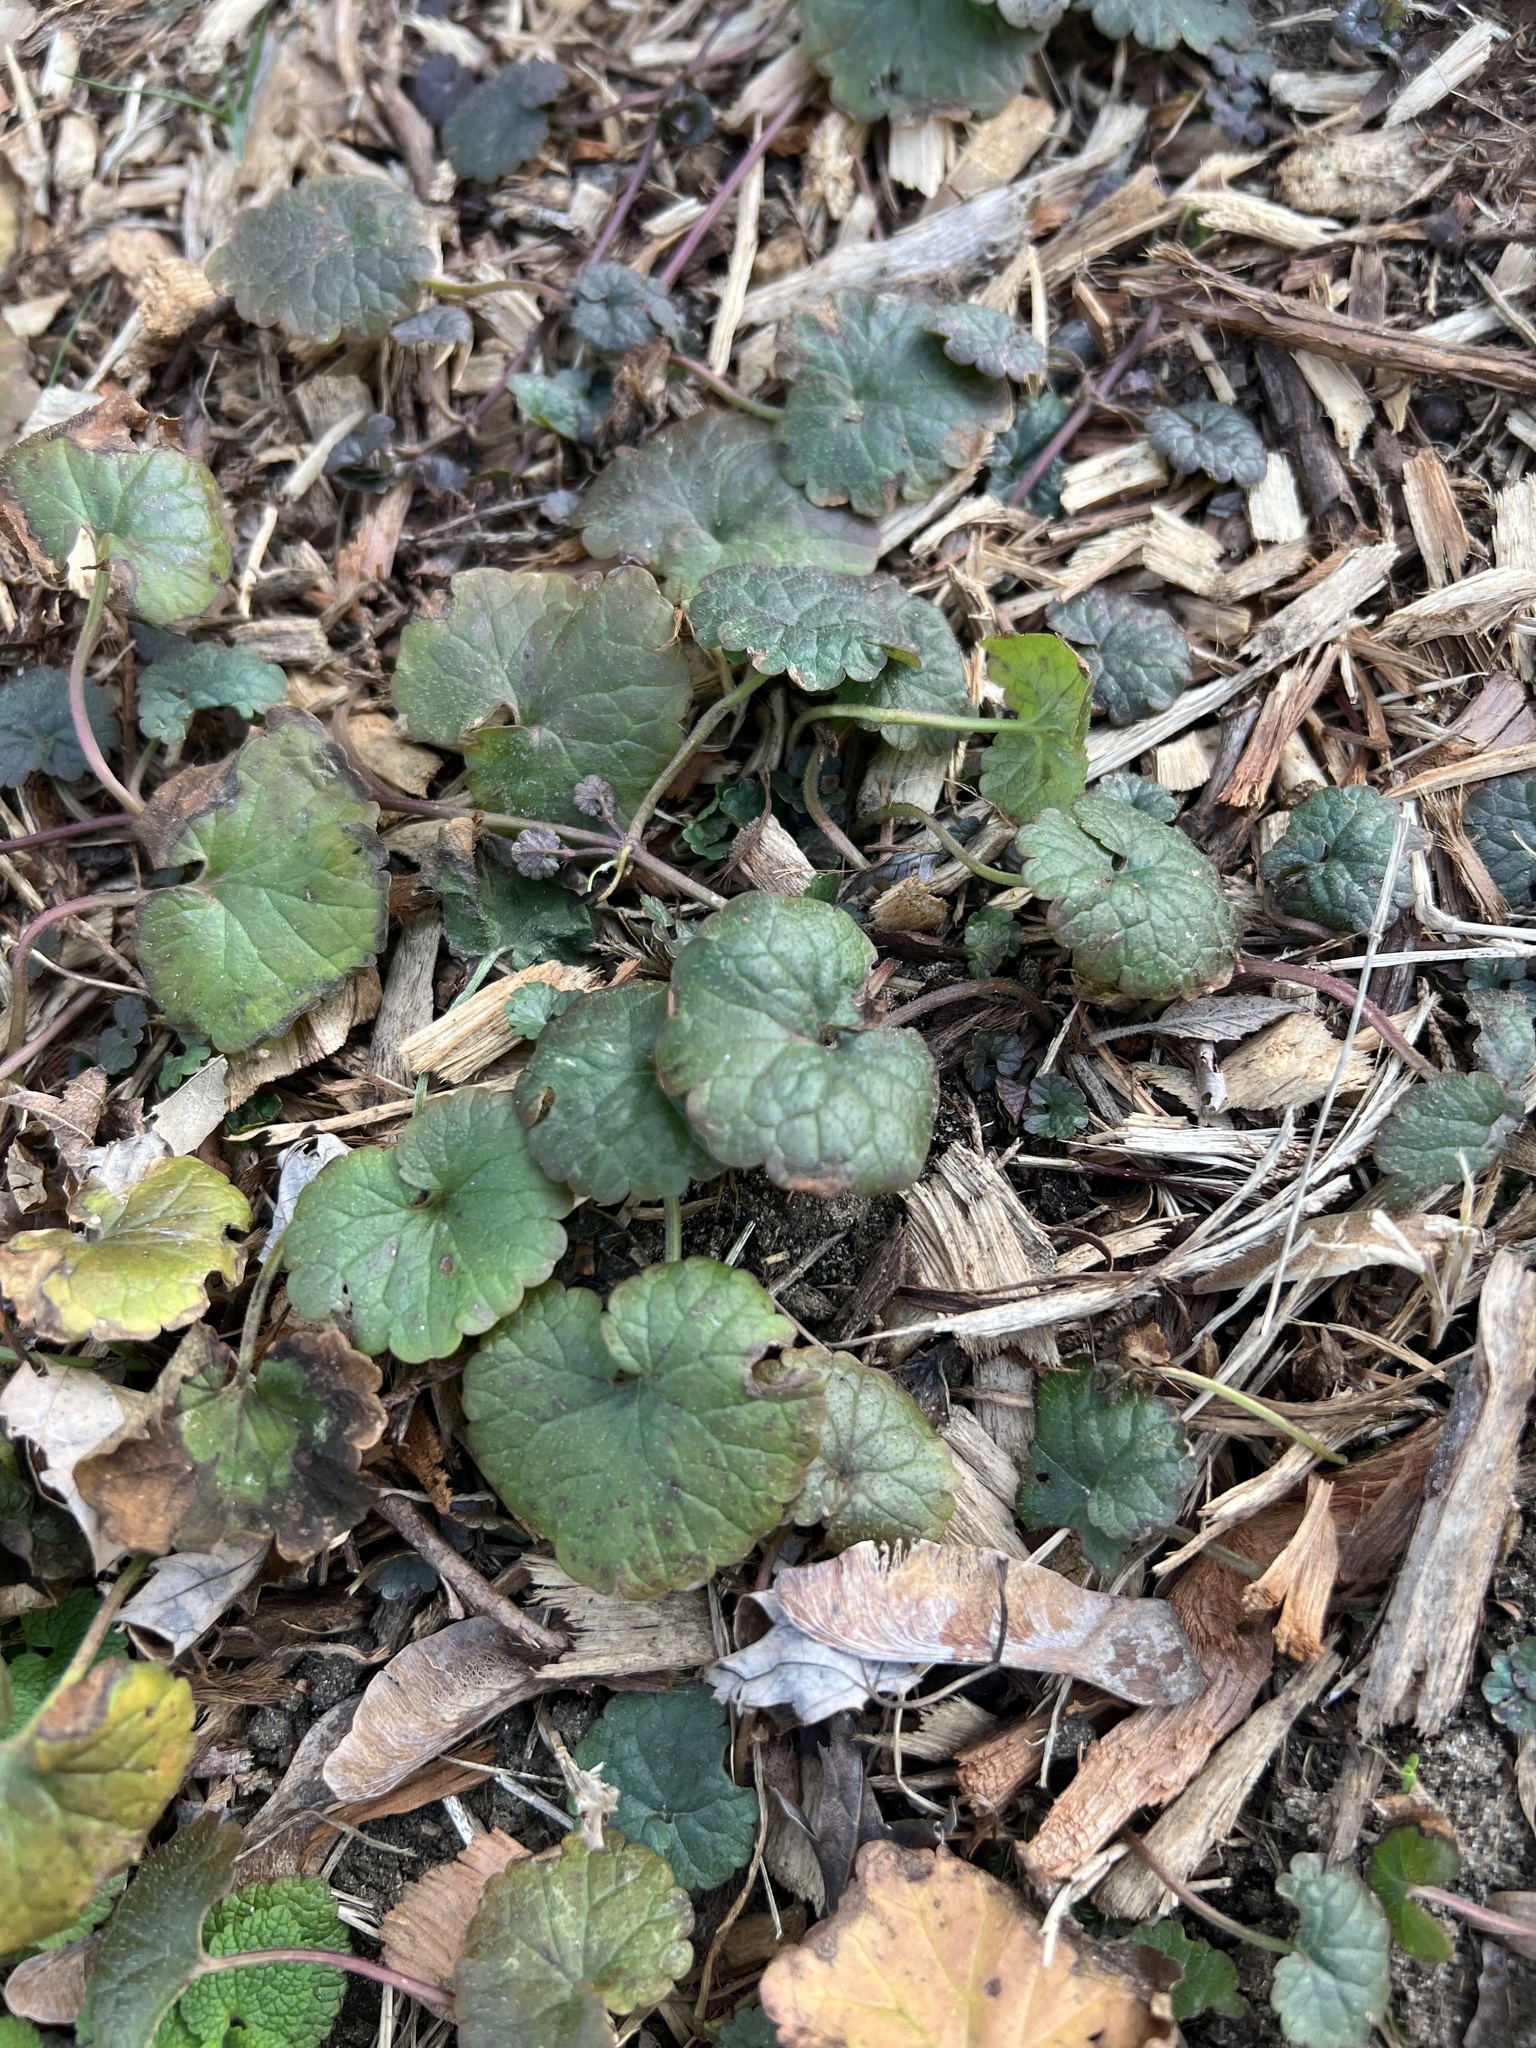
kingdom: Plantae
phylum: Tracheophyta
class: Magnoliopsida
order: Lamiales
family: Lamiaceae
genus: Glechoma
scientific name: Glechoma hederacea
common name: Ground ivy
